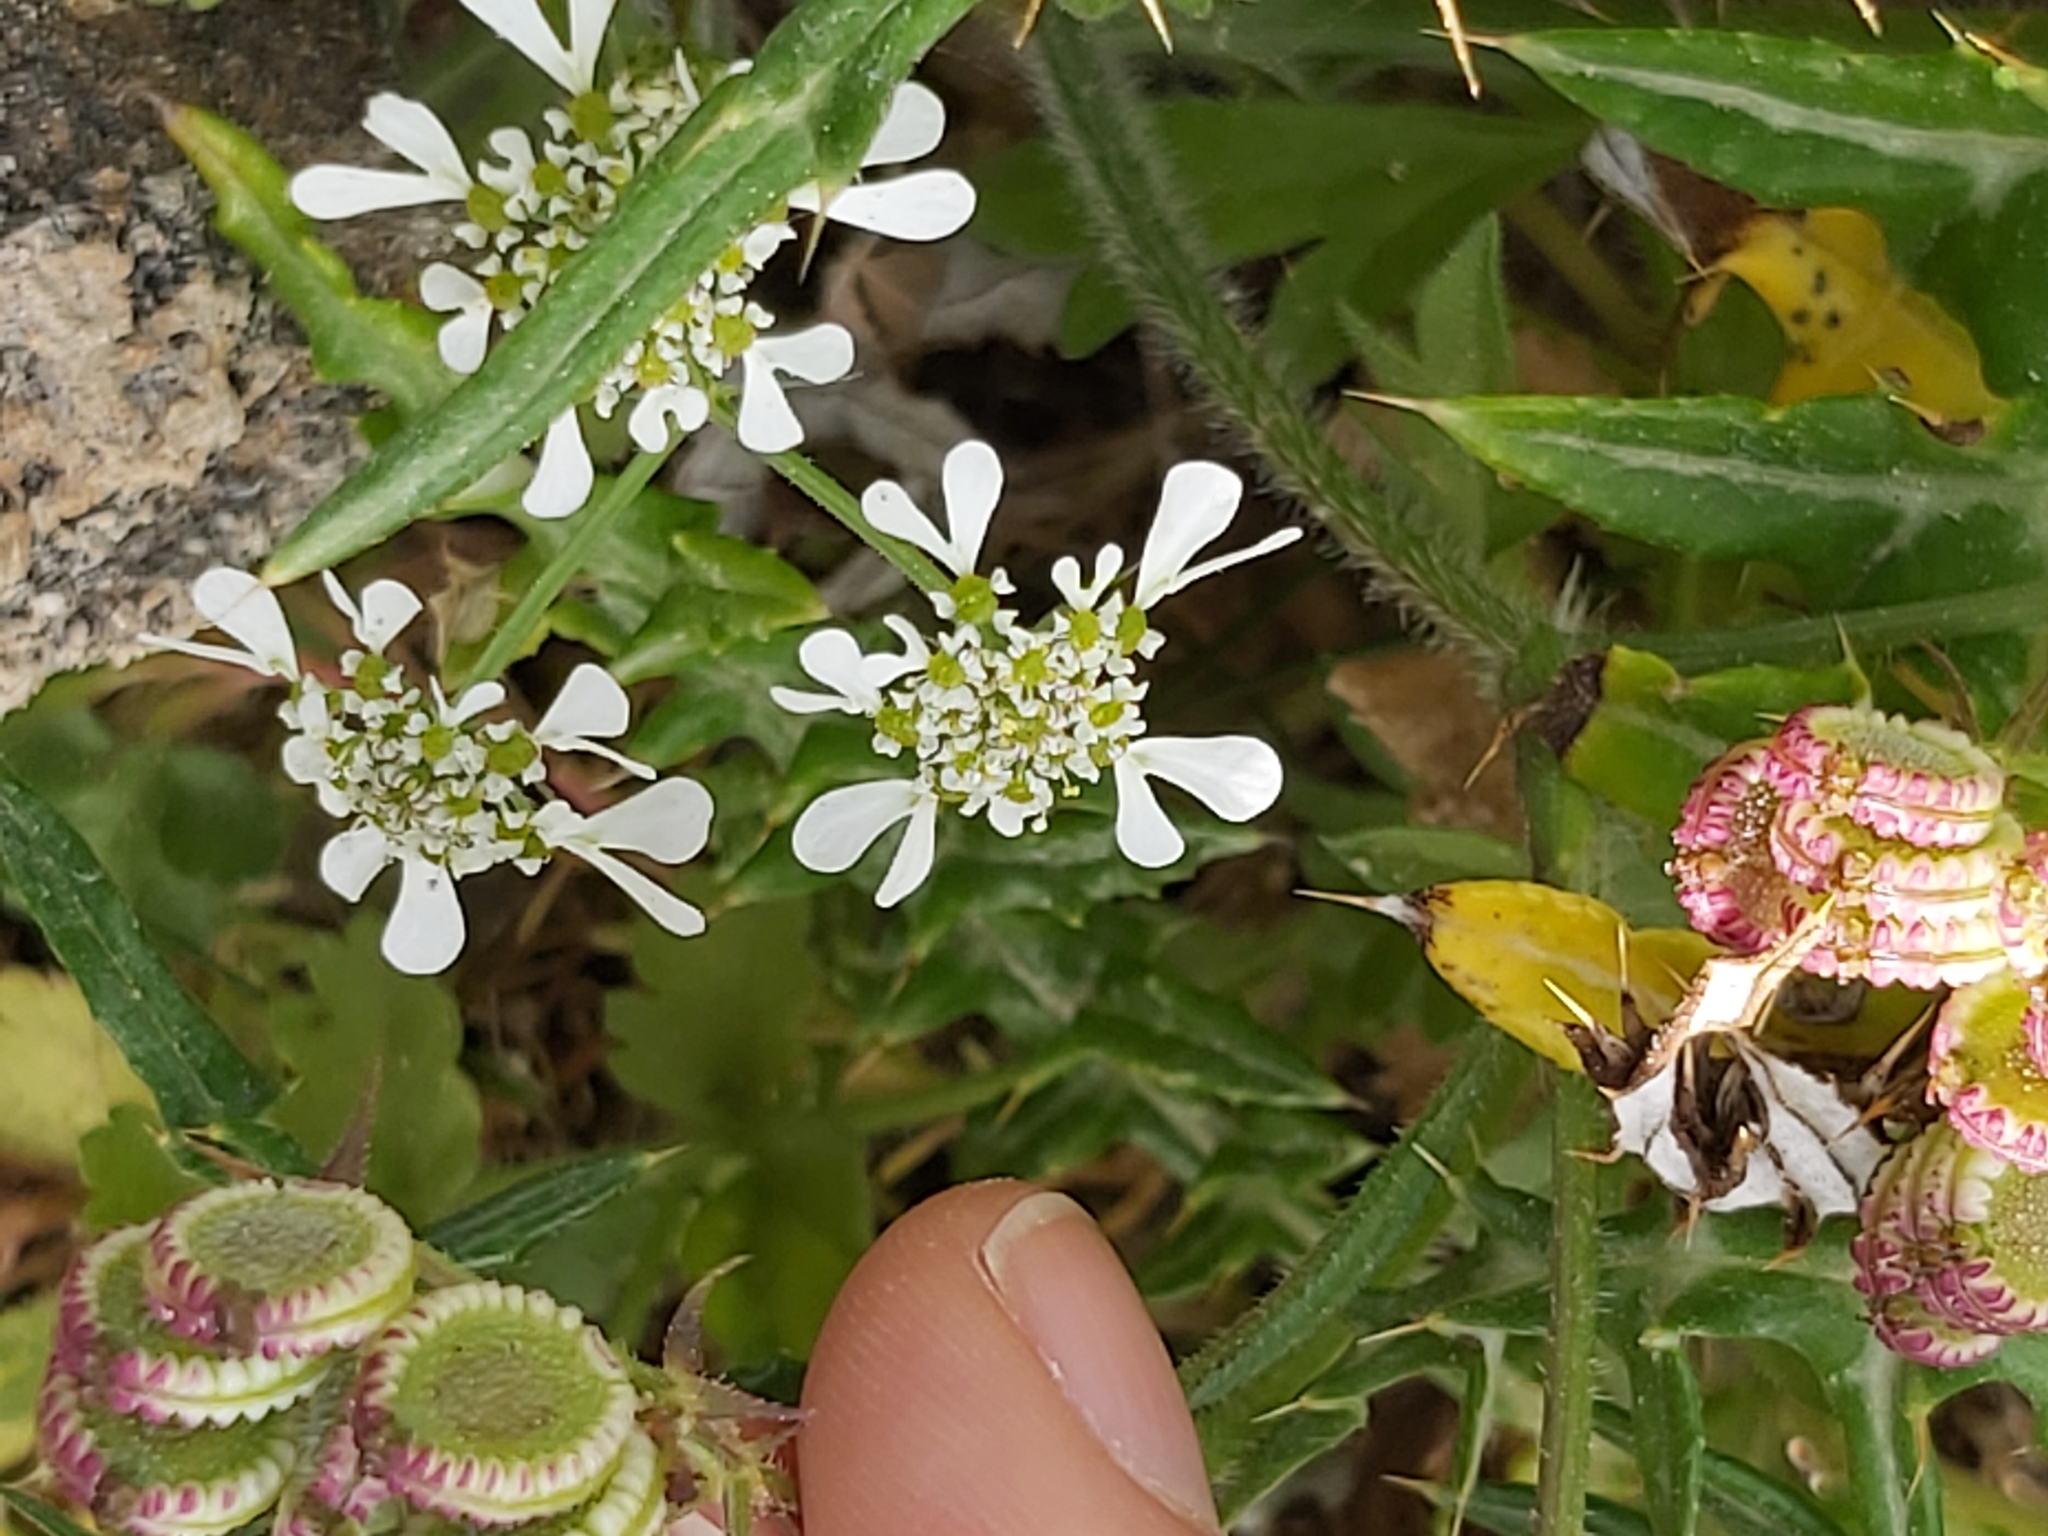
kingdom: Plantae
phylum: Tracheophyta
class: Magnoliopsida
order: Apiales
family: Apiaceae
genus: Tordylium
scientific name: Tordylium apulum
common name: Mediterranean hartwort
